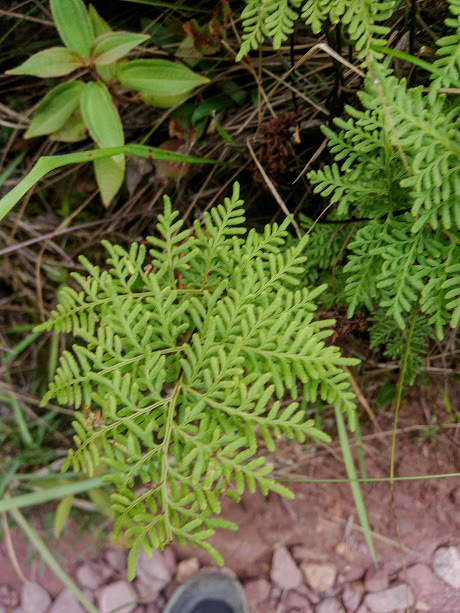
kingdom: Plantae
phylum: Tracheophyta
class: Polypodiopsida
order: Polypodiales
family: Pteridaceae
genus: Gaga
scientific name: Gaga marginata
